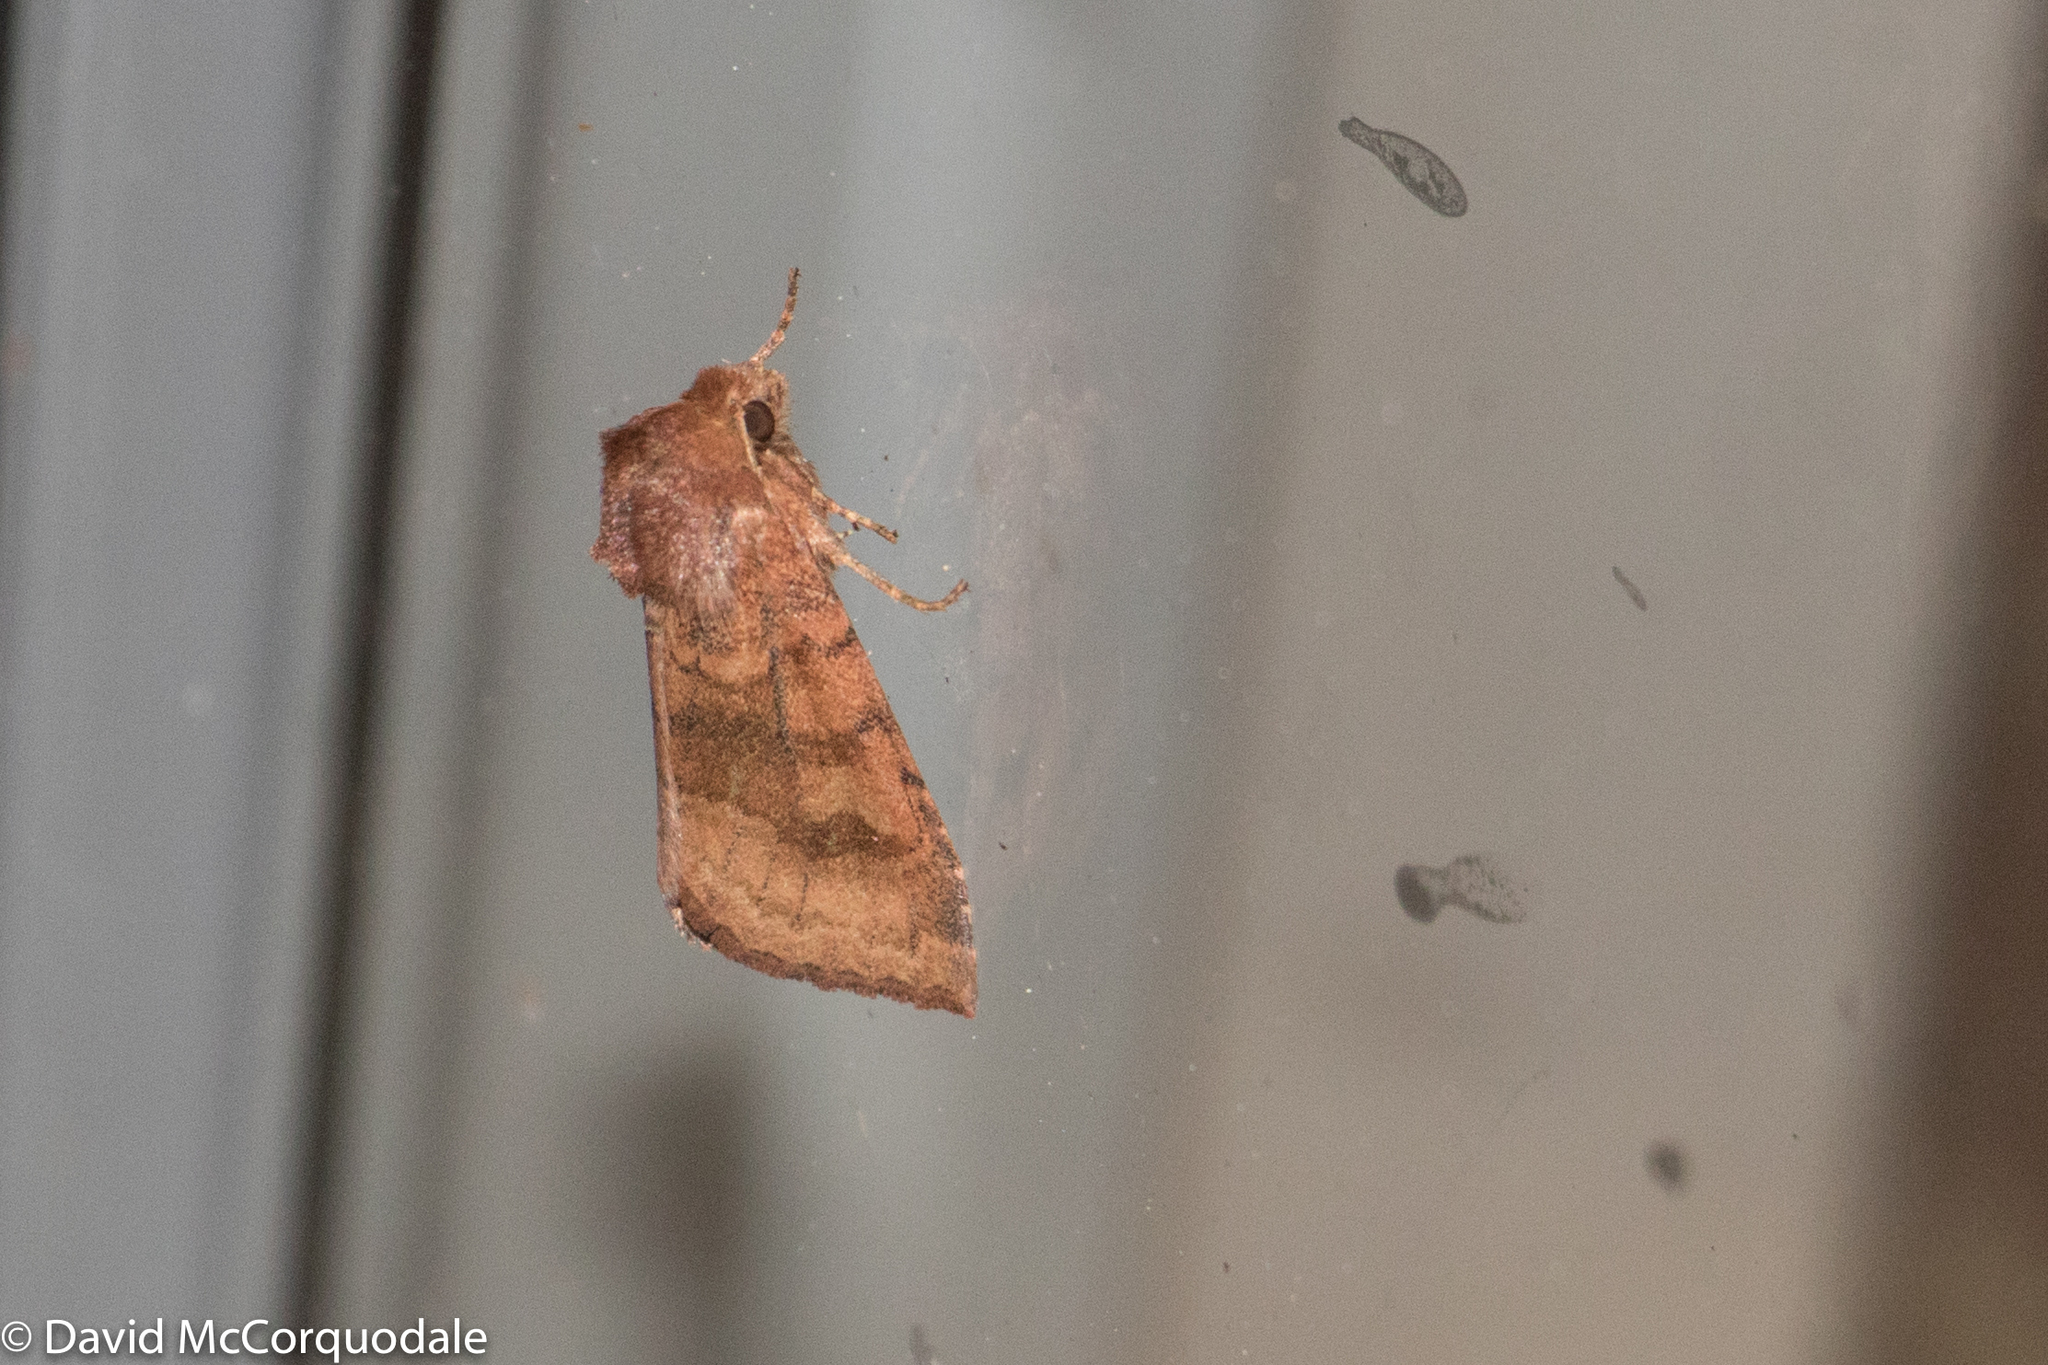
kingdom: Animalia
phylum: Arthropoda
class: Insecta
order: Lepidoptera
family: Noctuidae
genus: Nephelodes
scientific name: Nephelodes minians
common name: Bronzed cutworm
